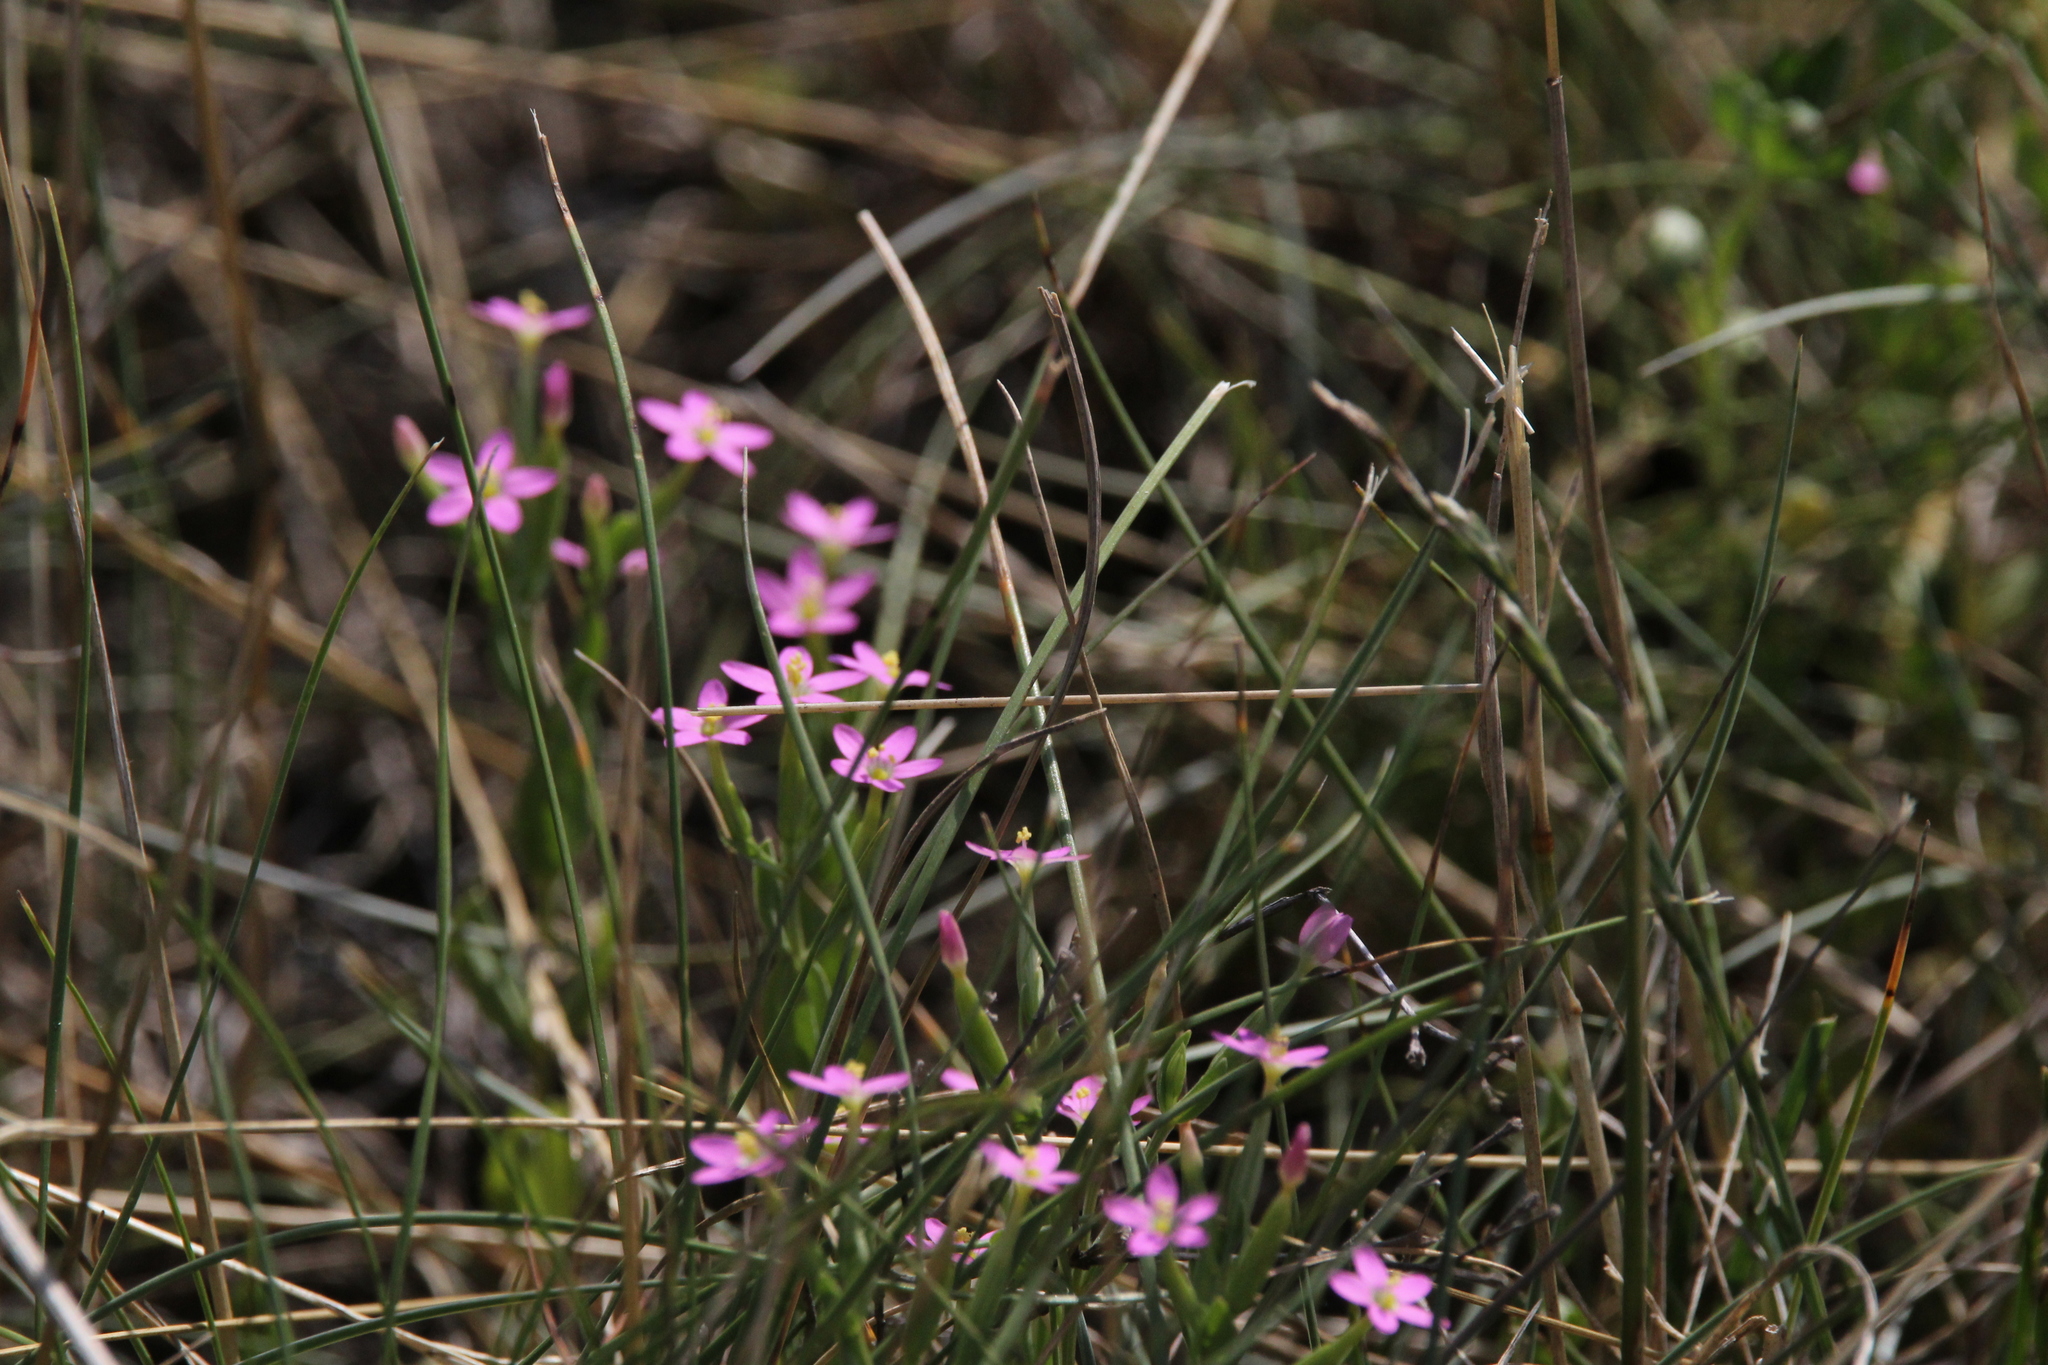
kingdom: Plantae
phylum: Tracheophyta
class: Magnoliopsida
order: Gentianales
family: Gentianaceae
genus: Centaurium
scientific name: Centaurium pulchellum
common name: Lesser centaury
